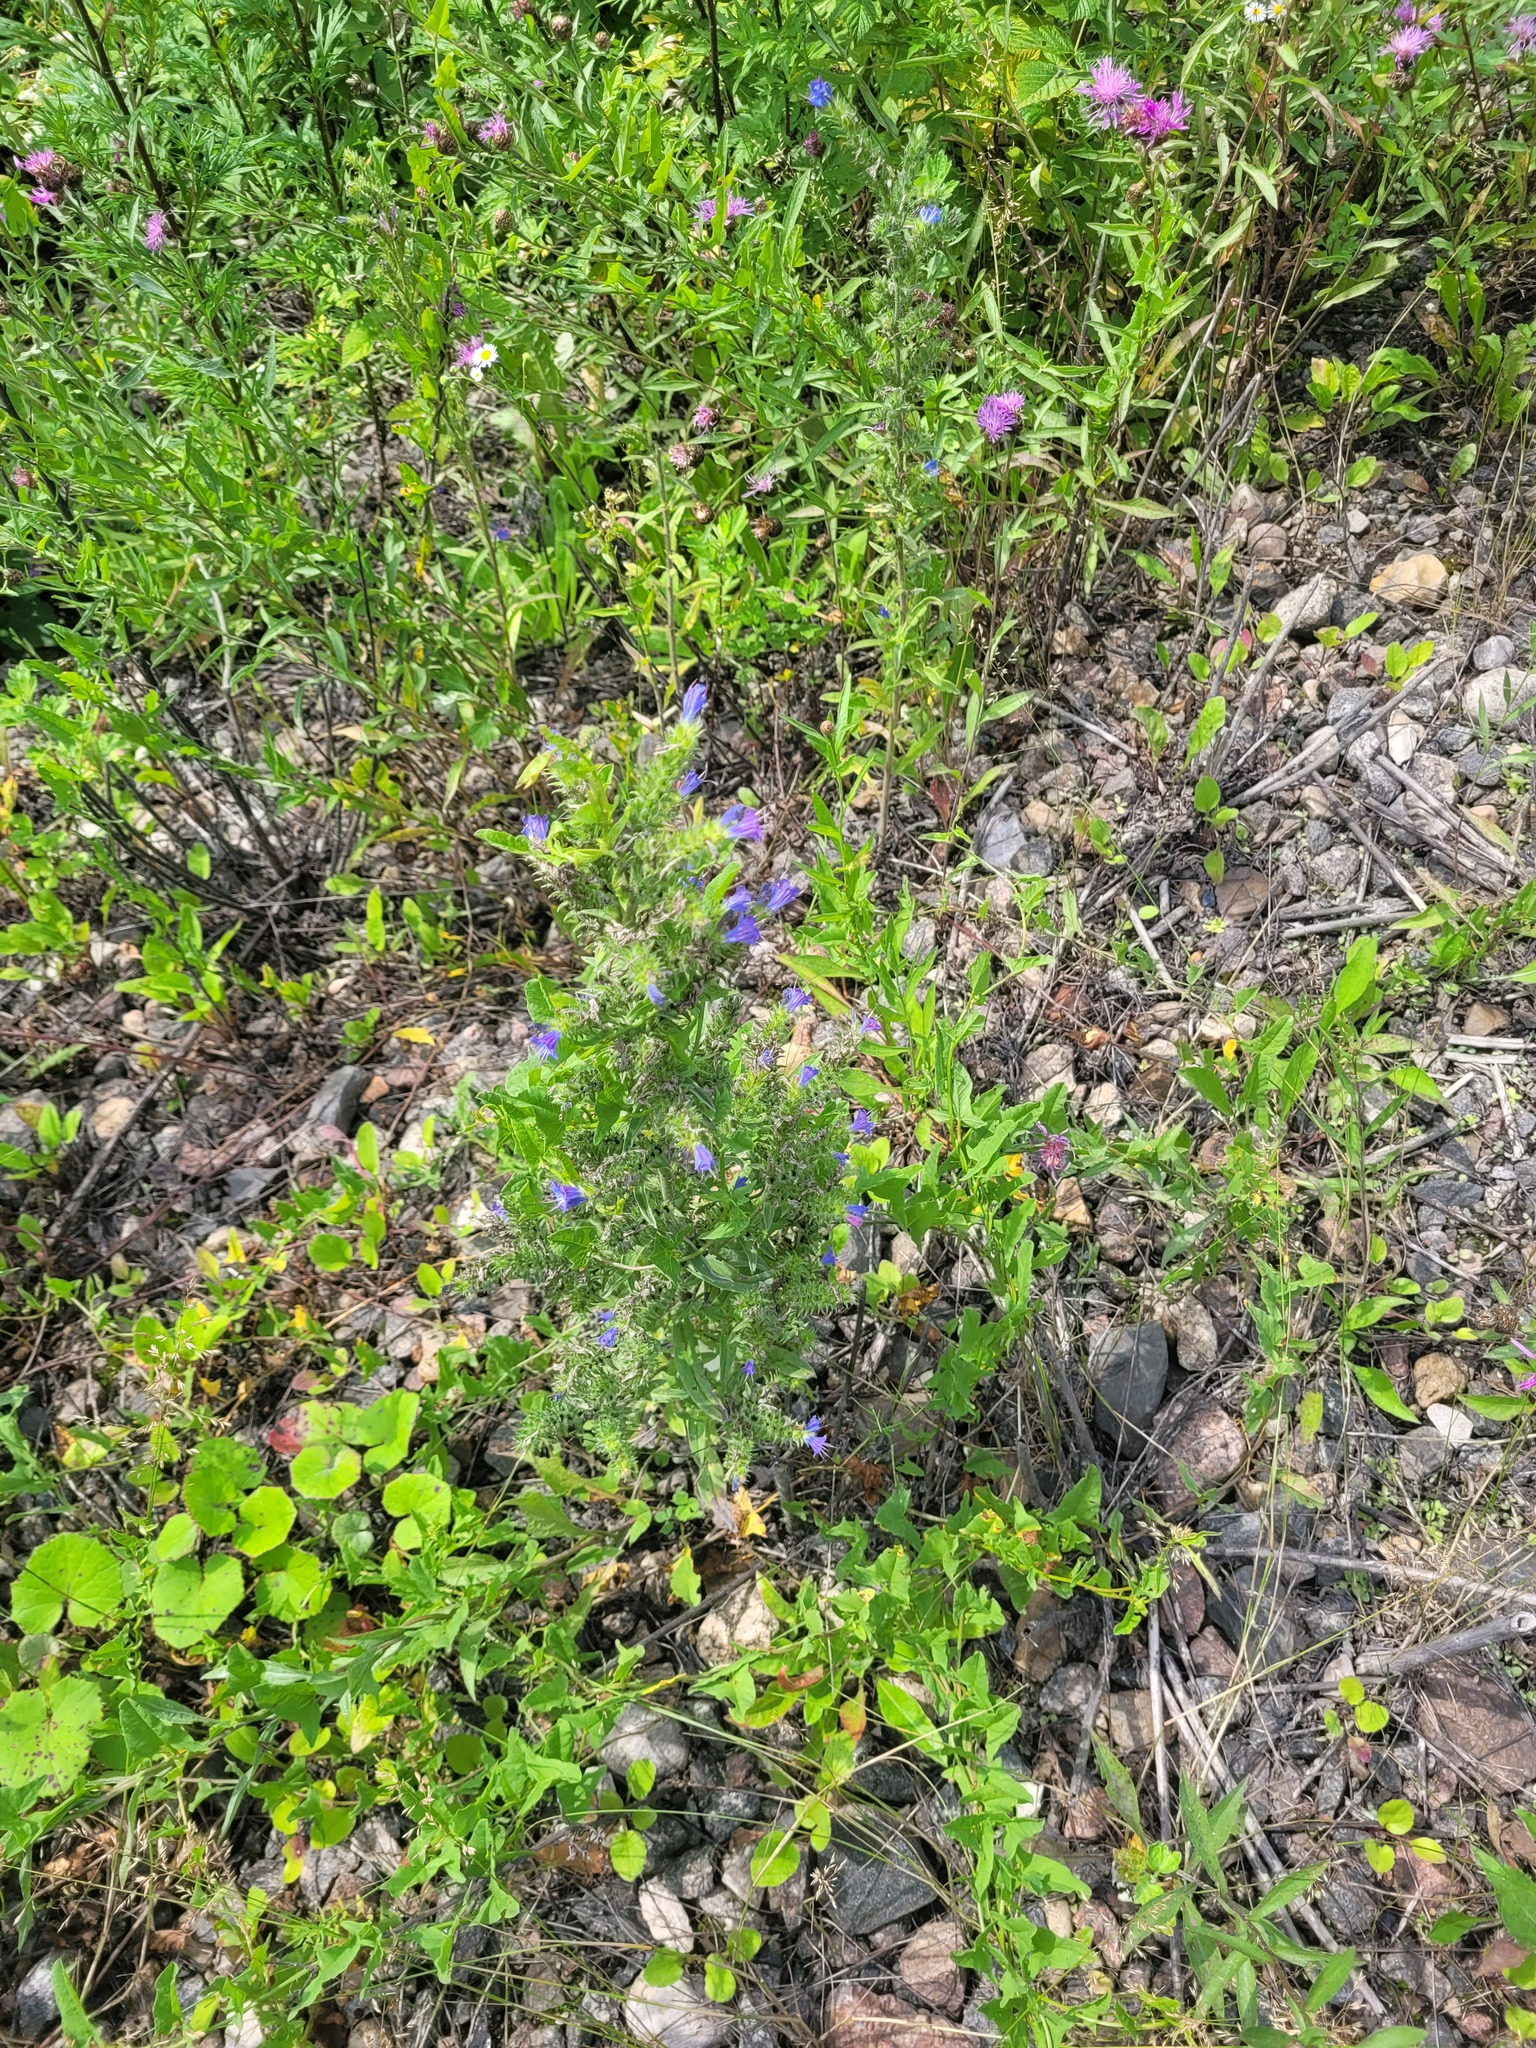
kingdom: Plantae
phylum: Tracheophyta
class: Magnoliopsida
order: Boraginales
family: Boraginaceae
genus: Echium
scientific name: Echium vulgare
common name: Common viper's bugloss
